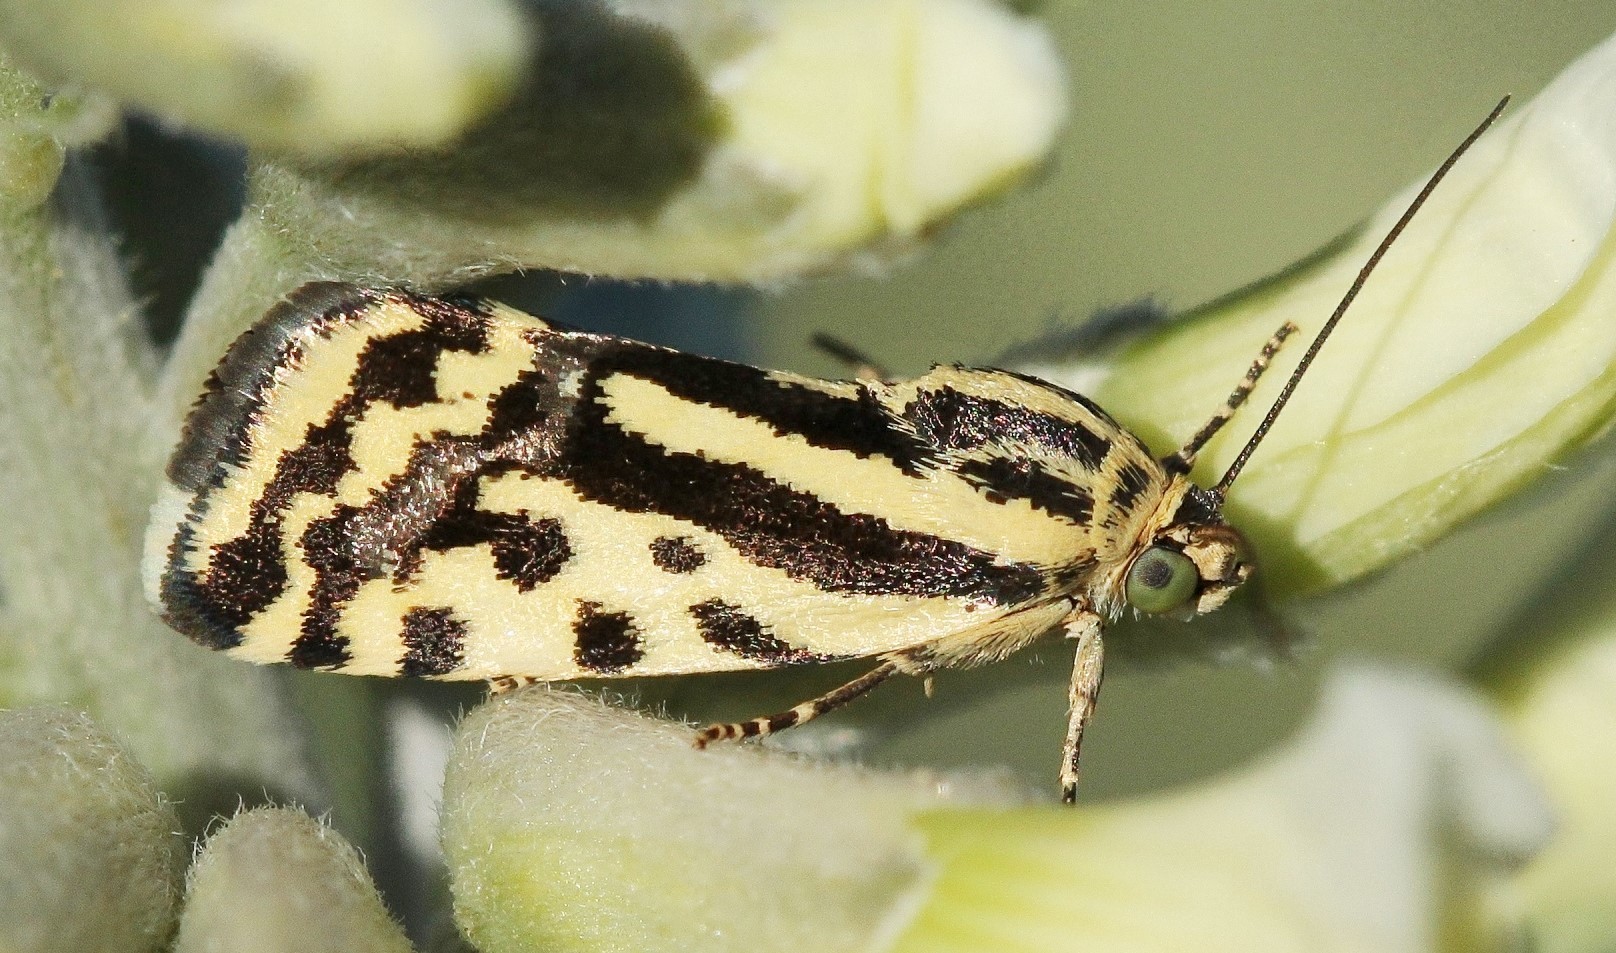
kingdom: Animalia
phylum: Arthropoda
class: Insecta
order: Lepidoptera
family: Noctuidae
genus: Acontia
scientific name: Acontia trabealis
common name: Spotted sulphur
